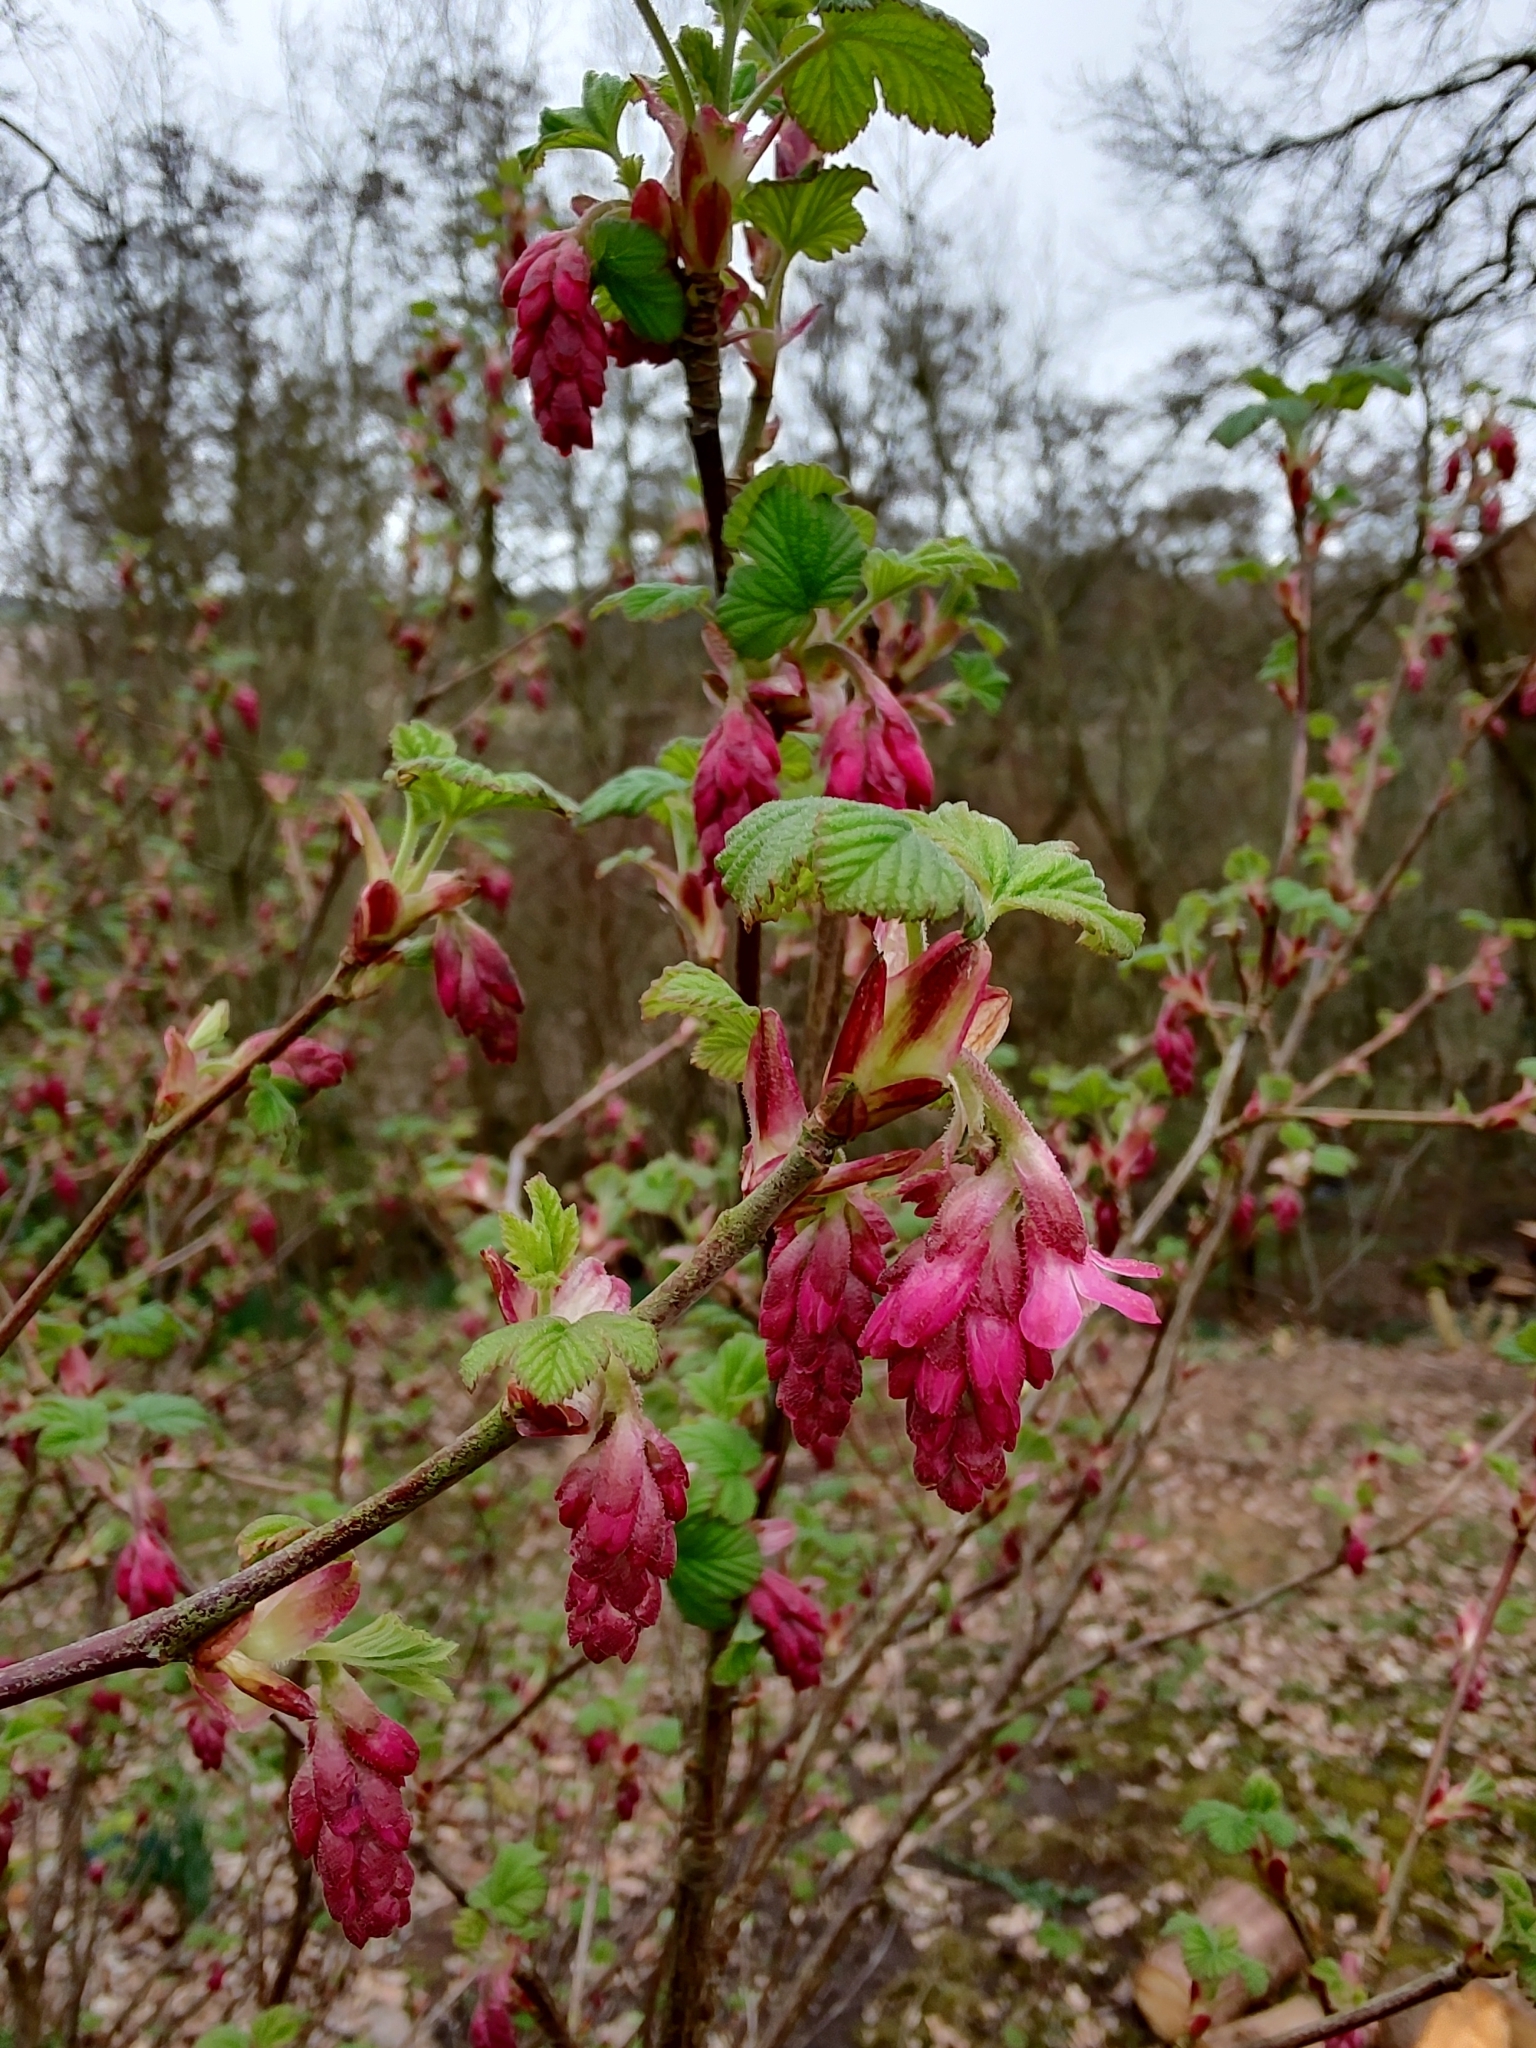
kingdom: Plantae
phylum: Tracheophyta
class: Magnoliopsida
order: Saxifragales
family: Grossulariaceae
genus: Ribes
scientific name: Ribes sanguineum
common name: Flowering currant
